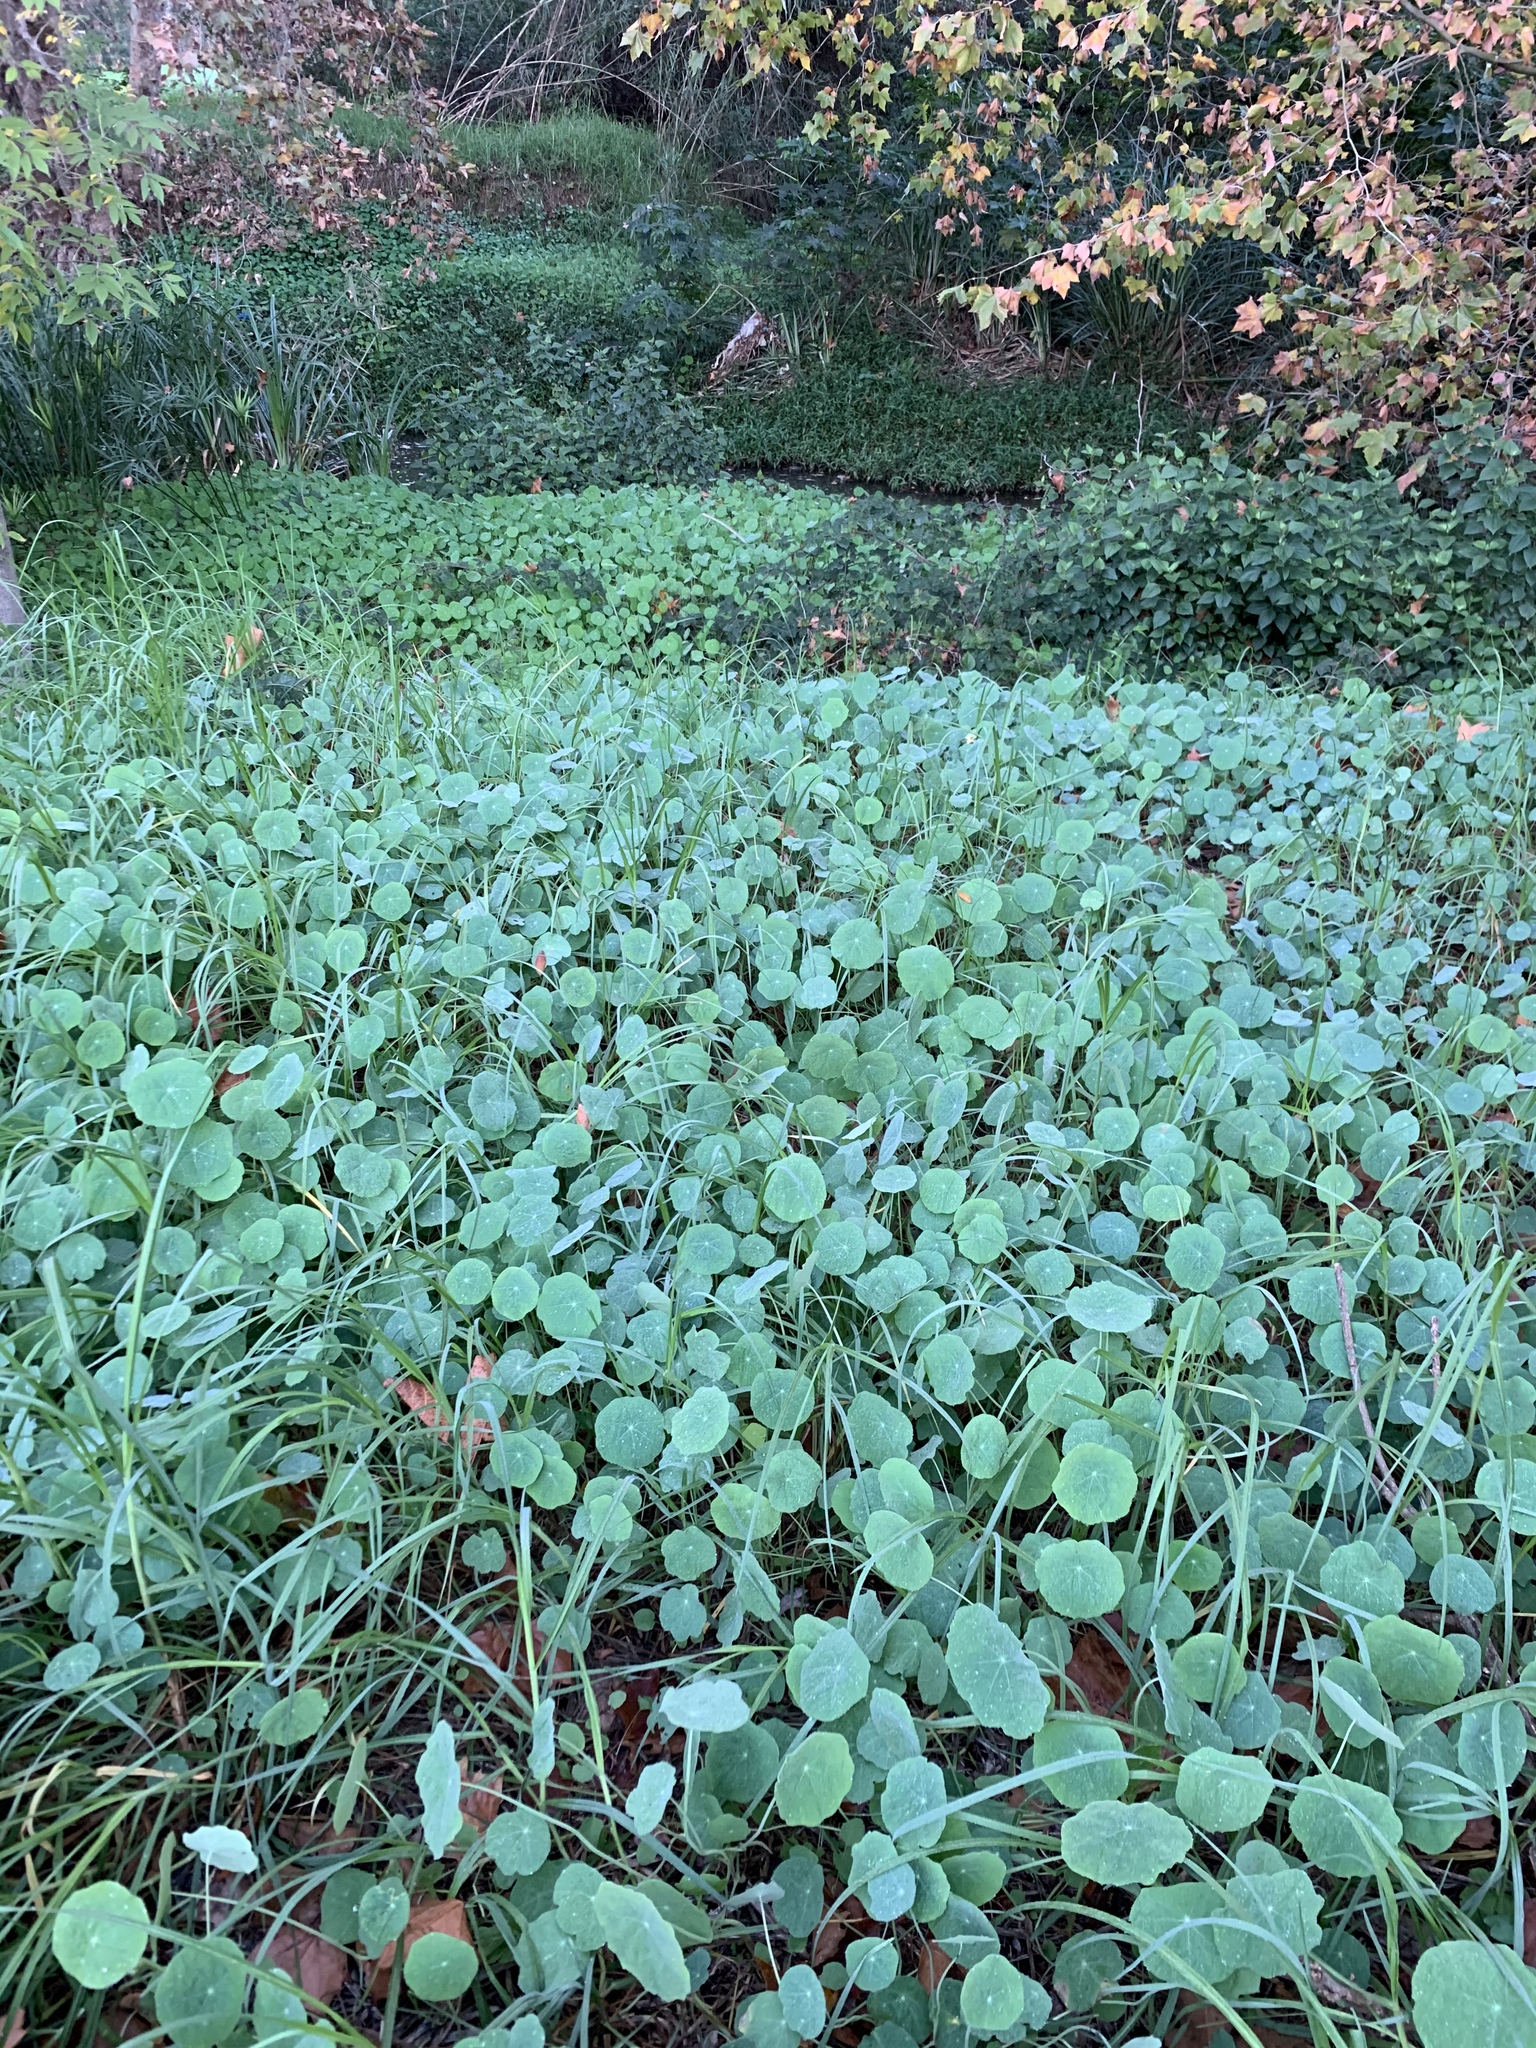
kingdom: Plantae
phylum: Tracheophyta
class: Magnoliopsida
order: Brassicales
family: Tropaeolaceae
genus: Tropaeolum
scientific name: Tropaeolum majus
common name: Nasturtium
